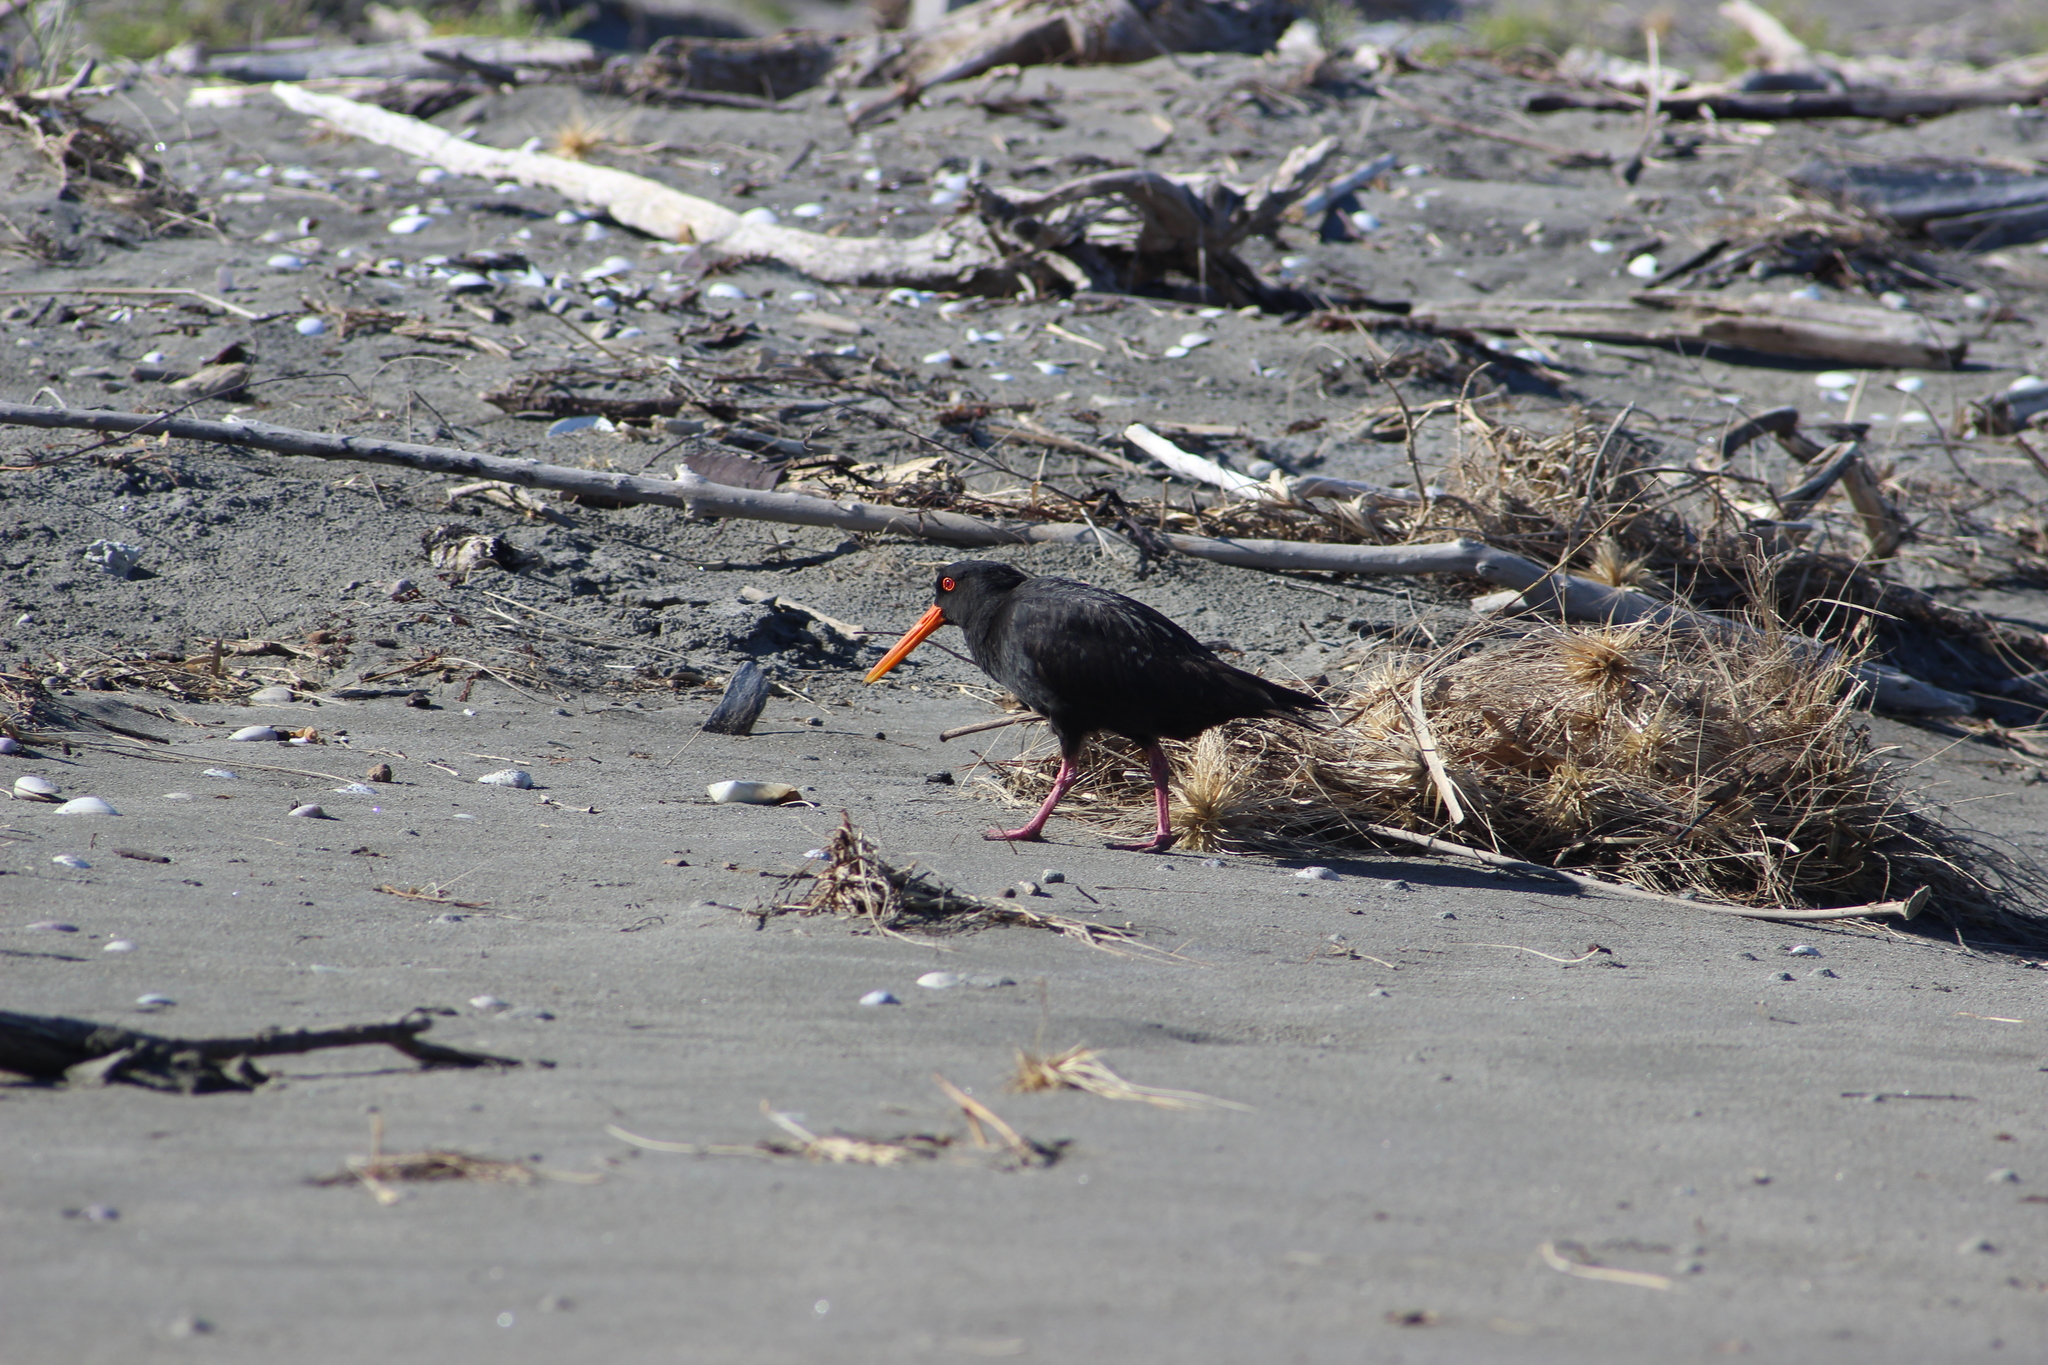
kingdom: Animalia
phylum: Chordata
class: Aves
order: Charadriiformes
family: Haematopodidae
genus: Haematopus
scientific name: Haematopus unicolor
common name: Variable oystercatcher
